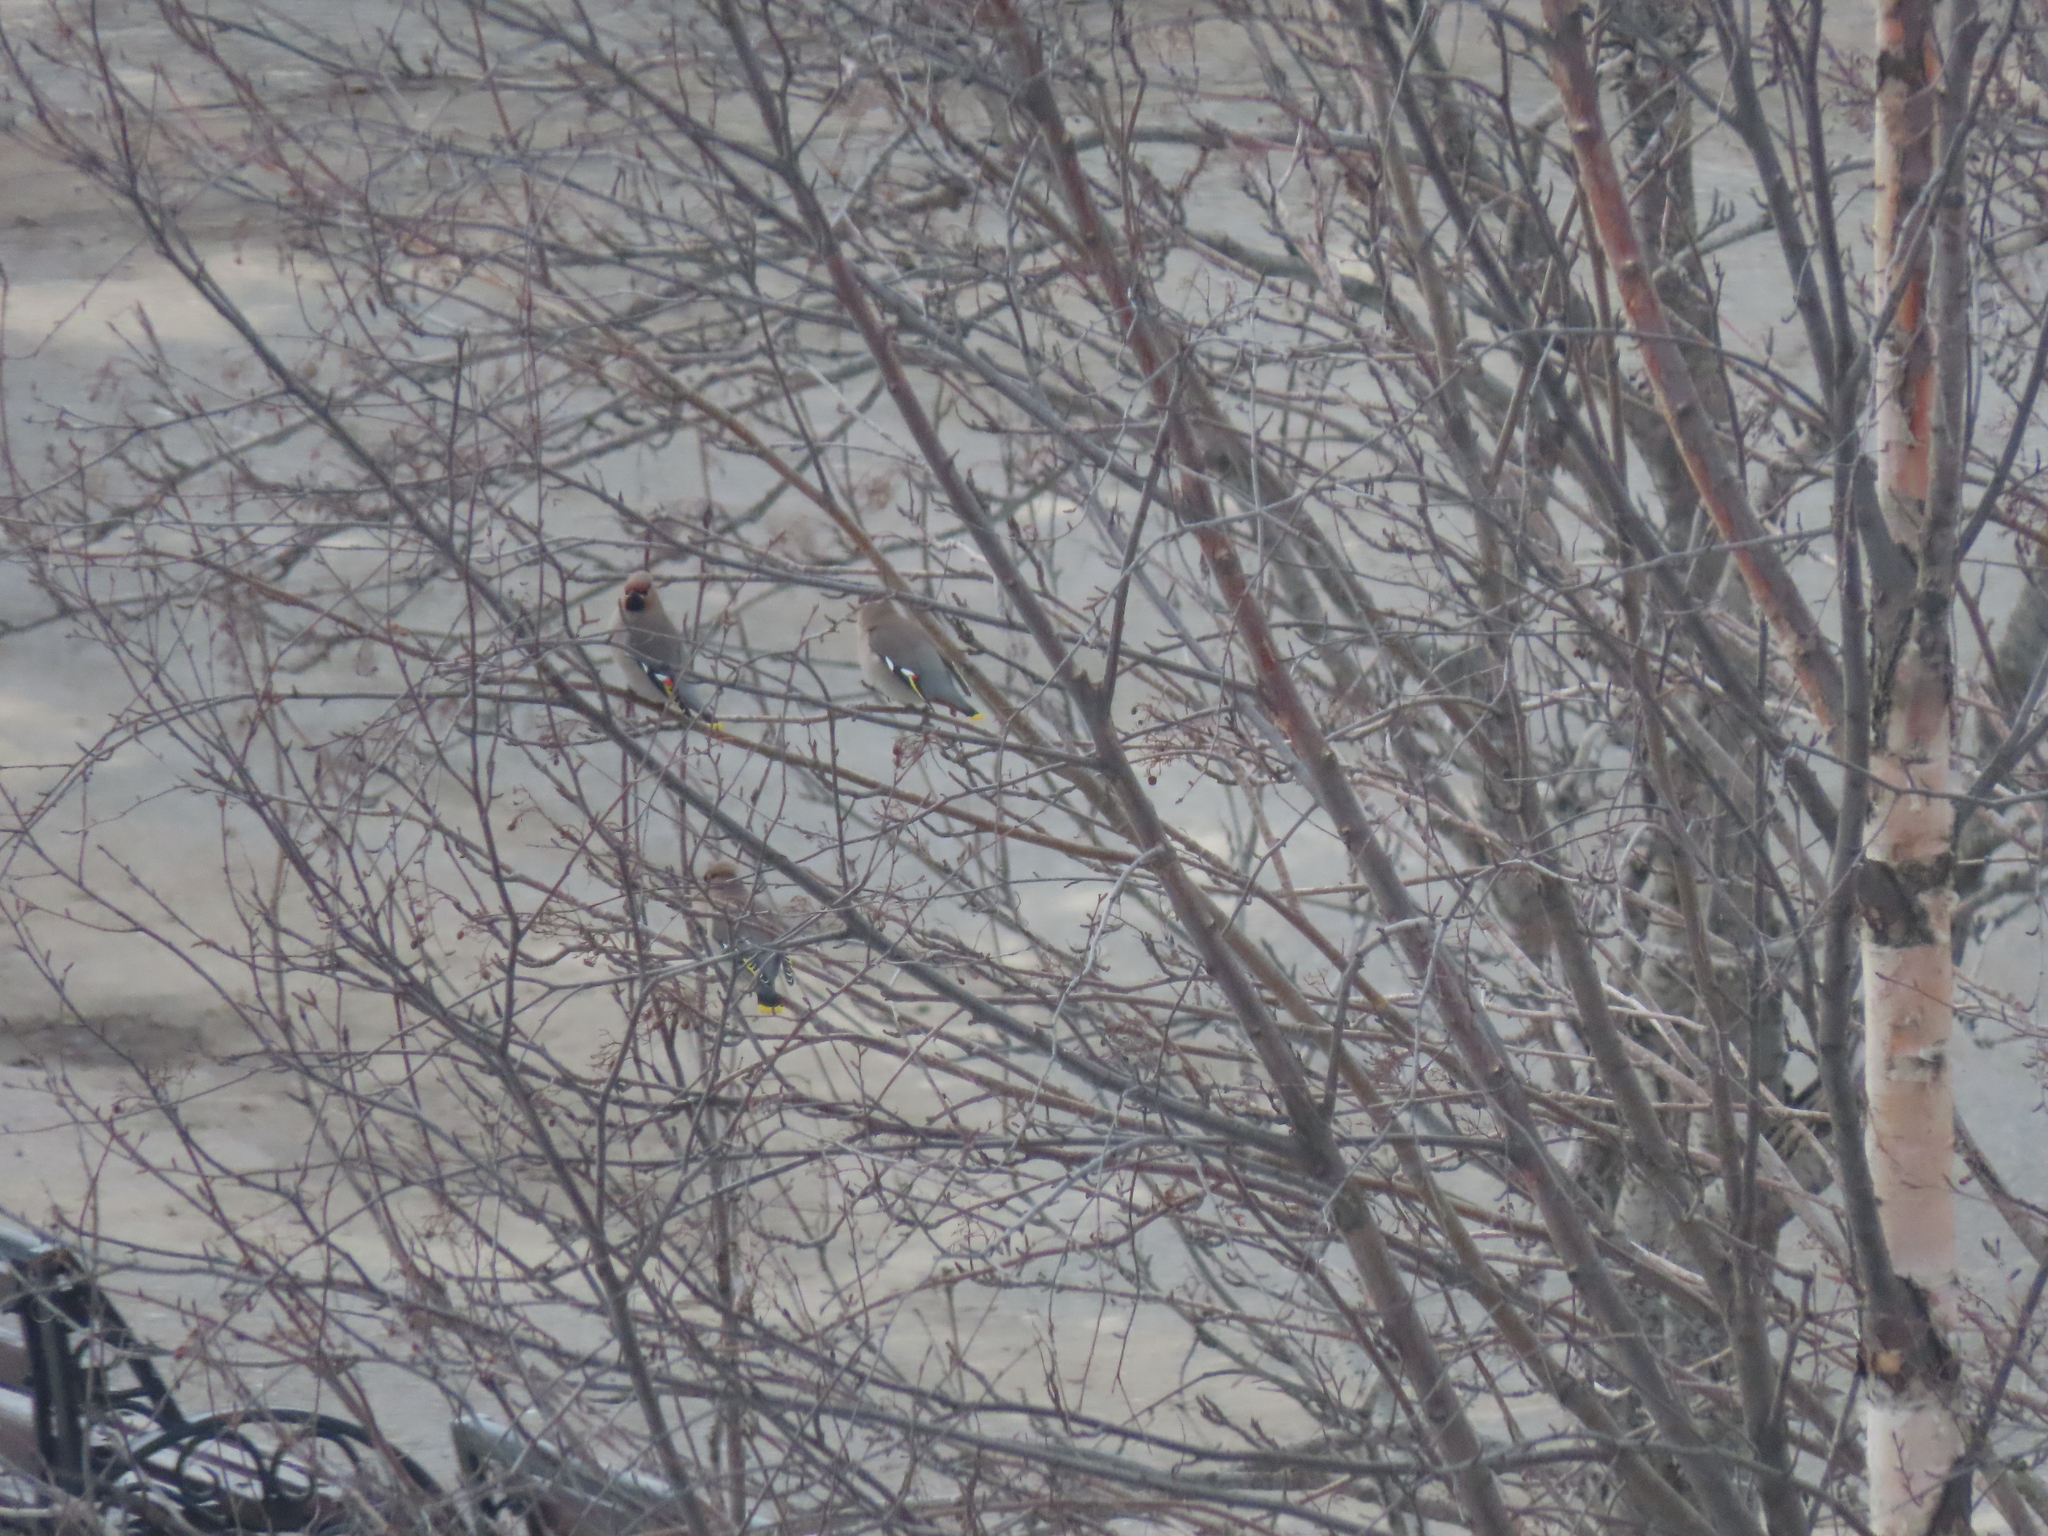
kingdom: Animalia
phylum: Chordata
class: Aves
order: Passeriformes
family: Bombycillidae
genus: Bombycilla
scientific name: Bombycilla garrulus
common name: Bohemian waxwing
